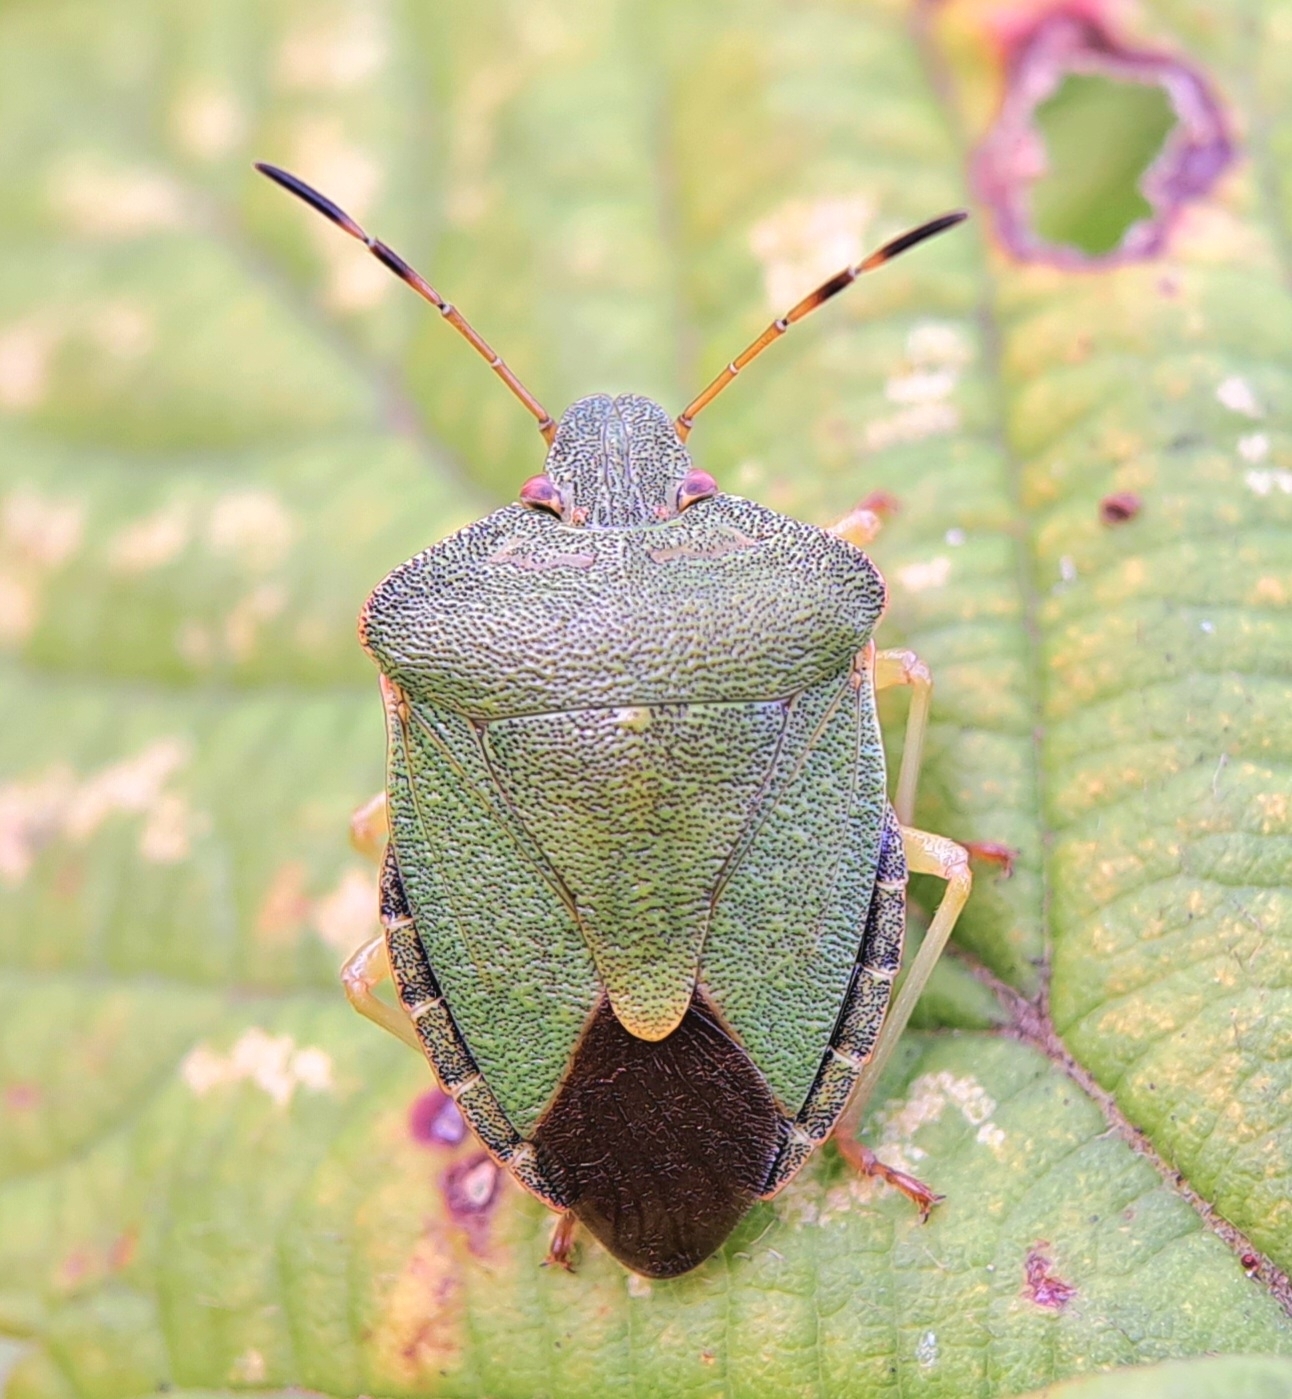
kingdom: Animalia
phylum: Arthropoda
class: Insecta
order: Hemiptera
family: Pentatomidae
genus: Palomena
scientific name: Palomena prasina
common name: Green shieldbug
